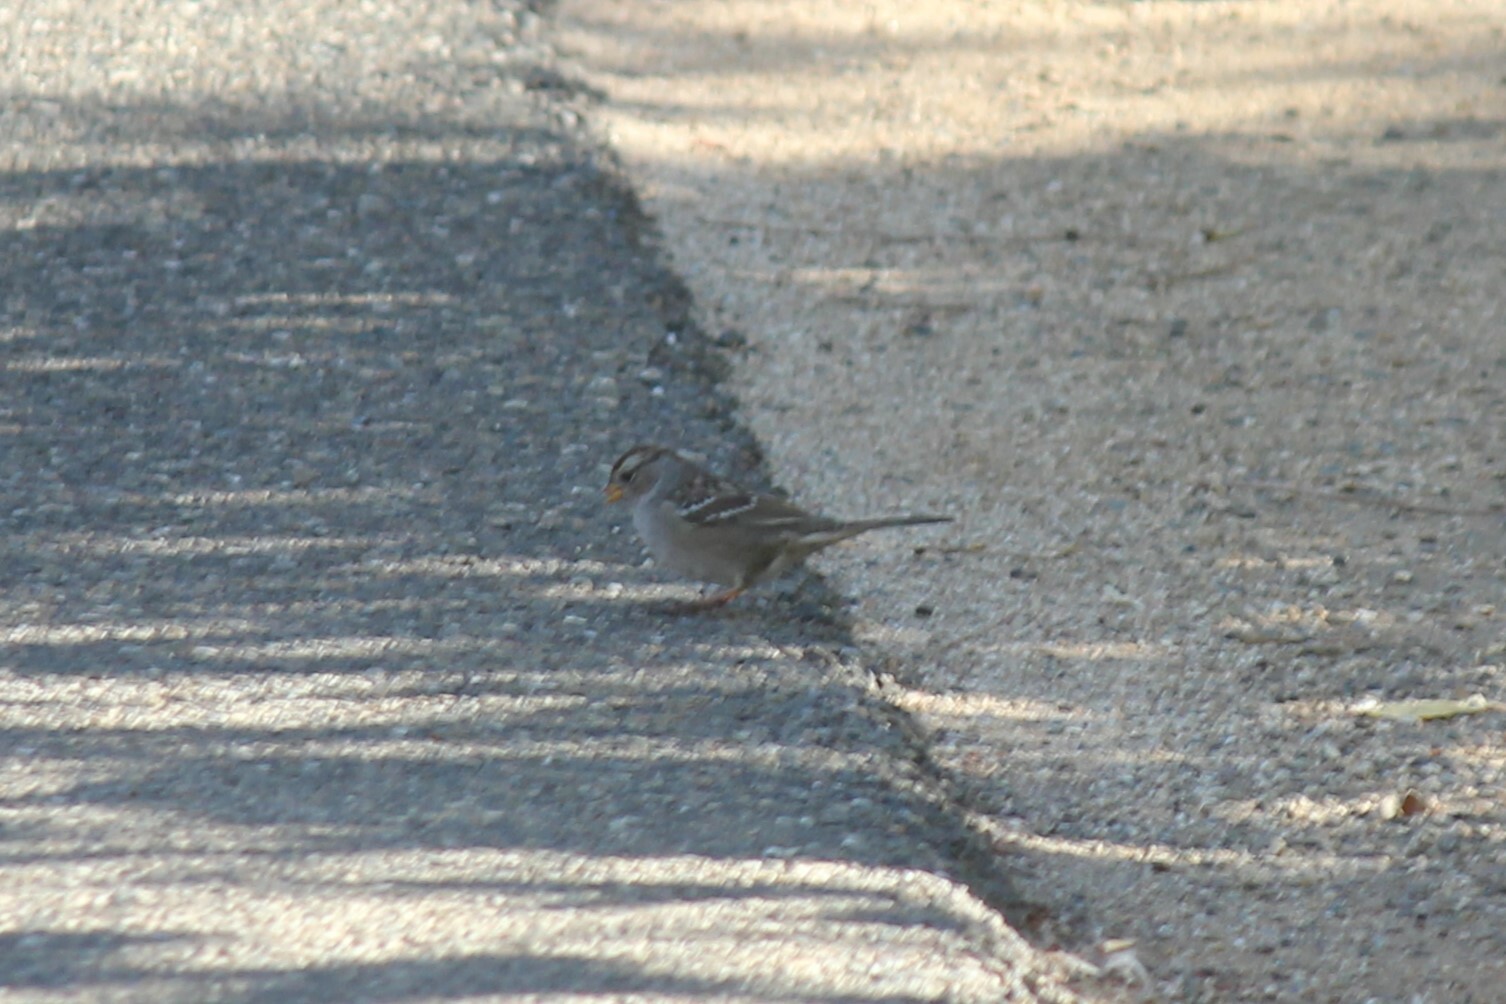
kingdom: Animalia
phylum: Chordata
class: Aves
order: Passeriformes
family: Passerellidae
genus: Zonotrichia
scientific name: Zonotrichia leucophrys
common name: White-crowned sparrow
